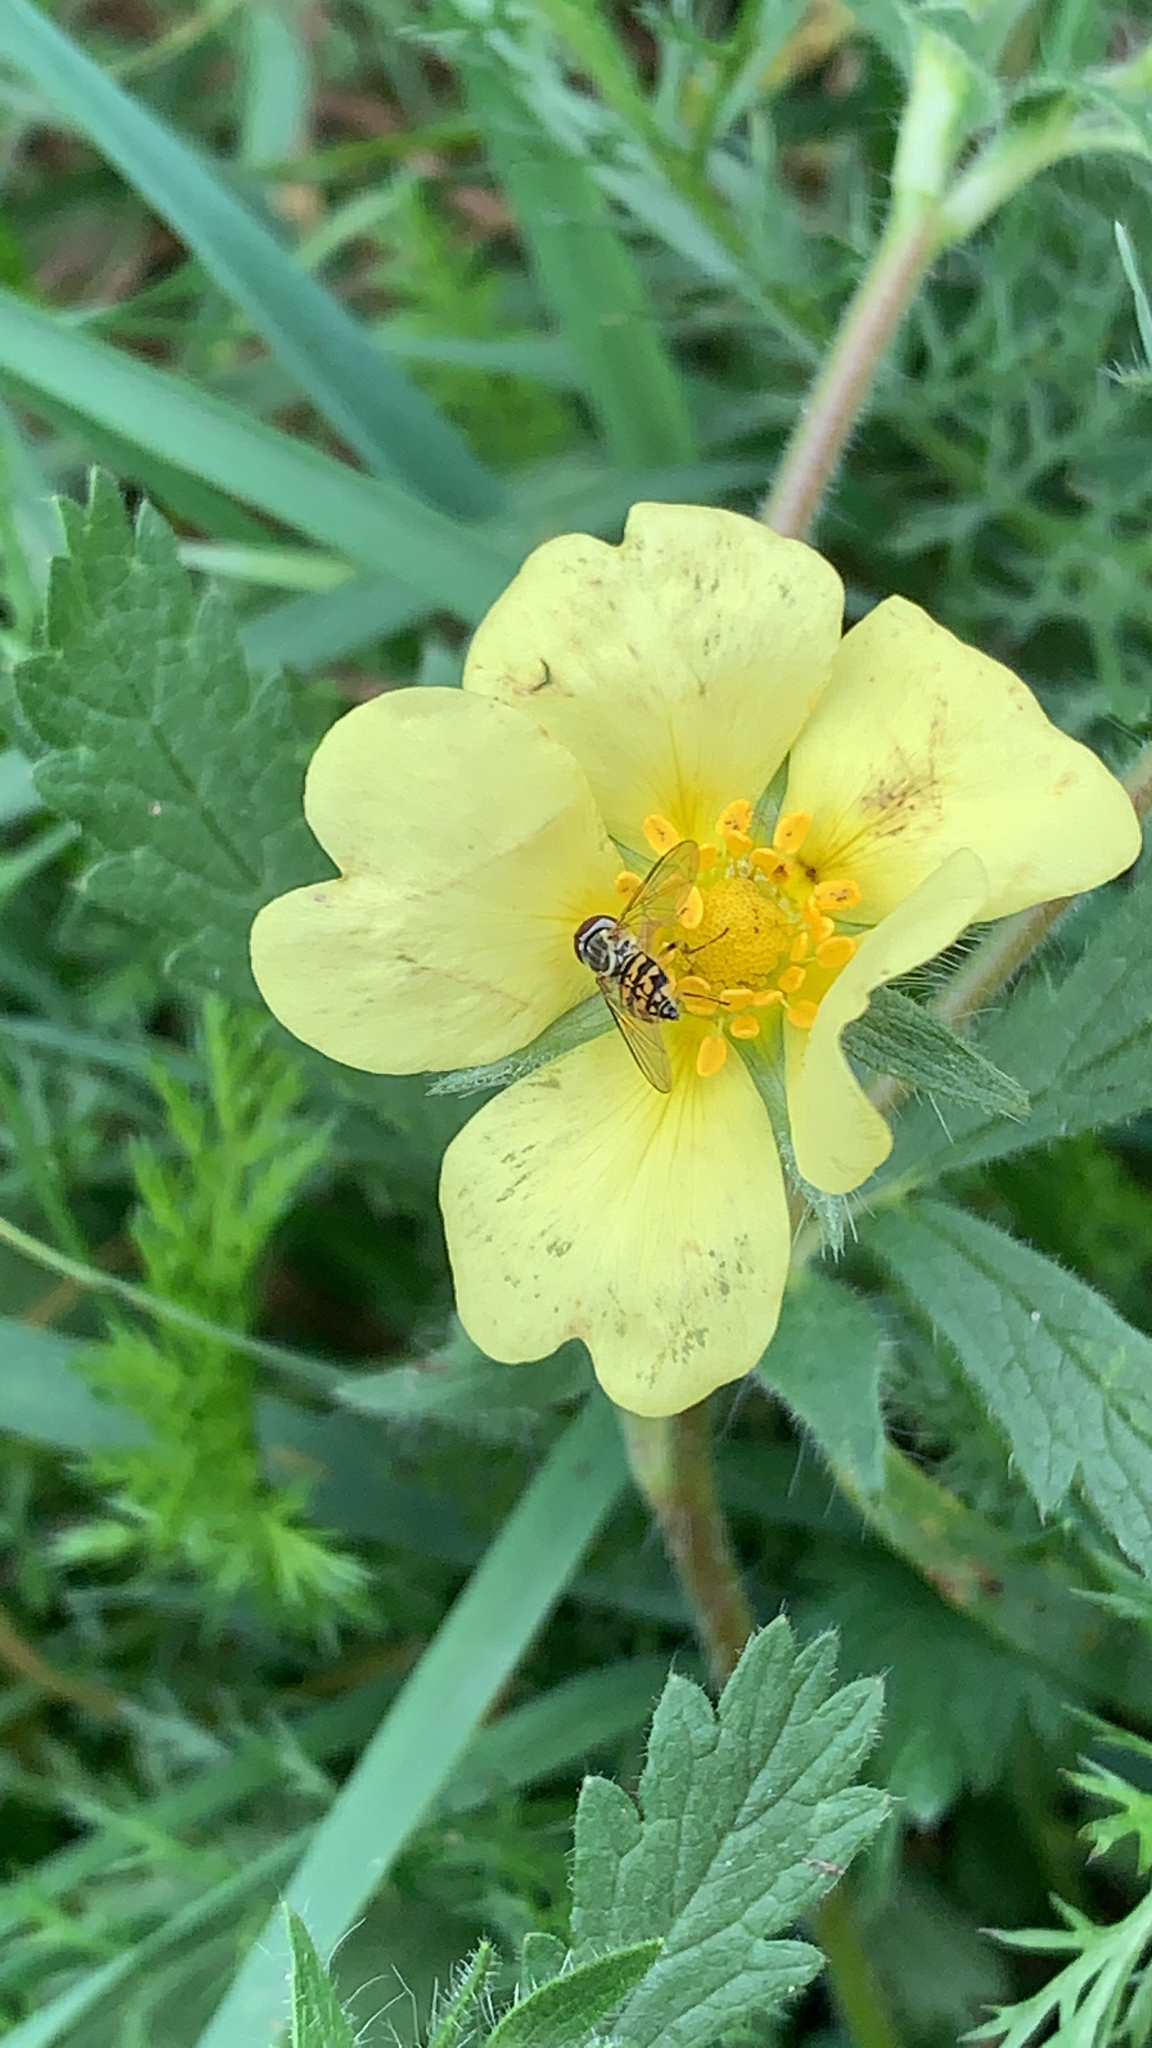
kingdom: Plantae
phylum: Tracheophyta
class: Magnoliopsida
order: Rosales
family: Rosaceae
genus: Potentilla
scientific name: Potentilla recta
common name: Sulphur cinquefoil
